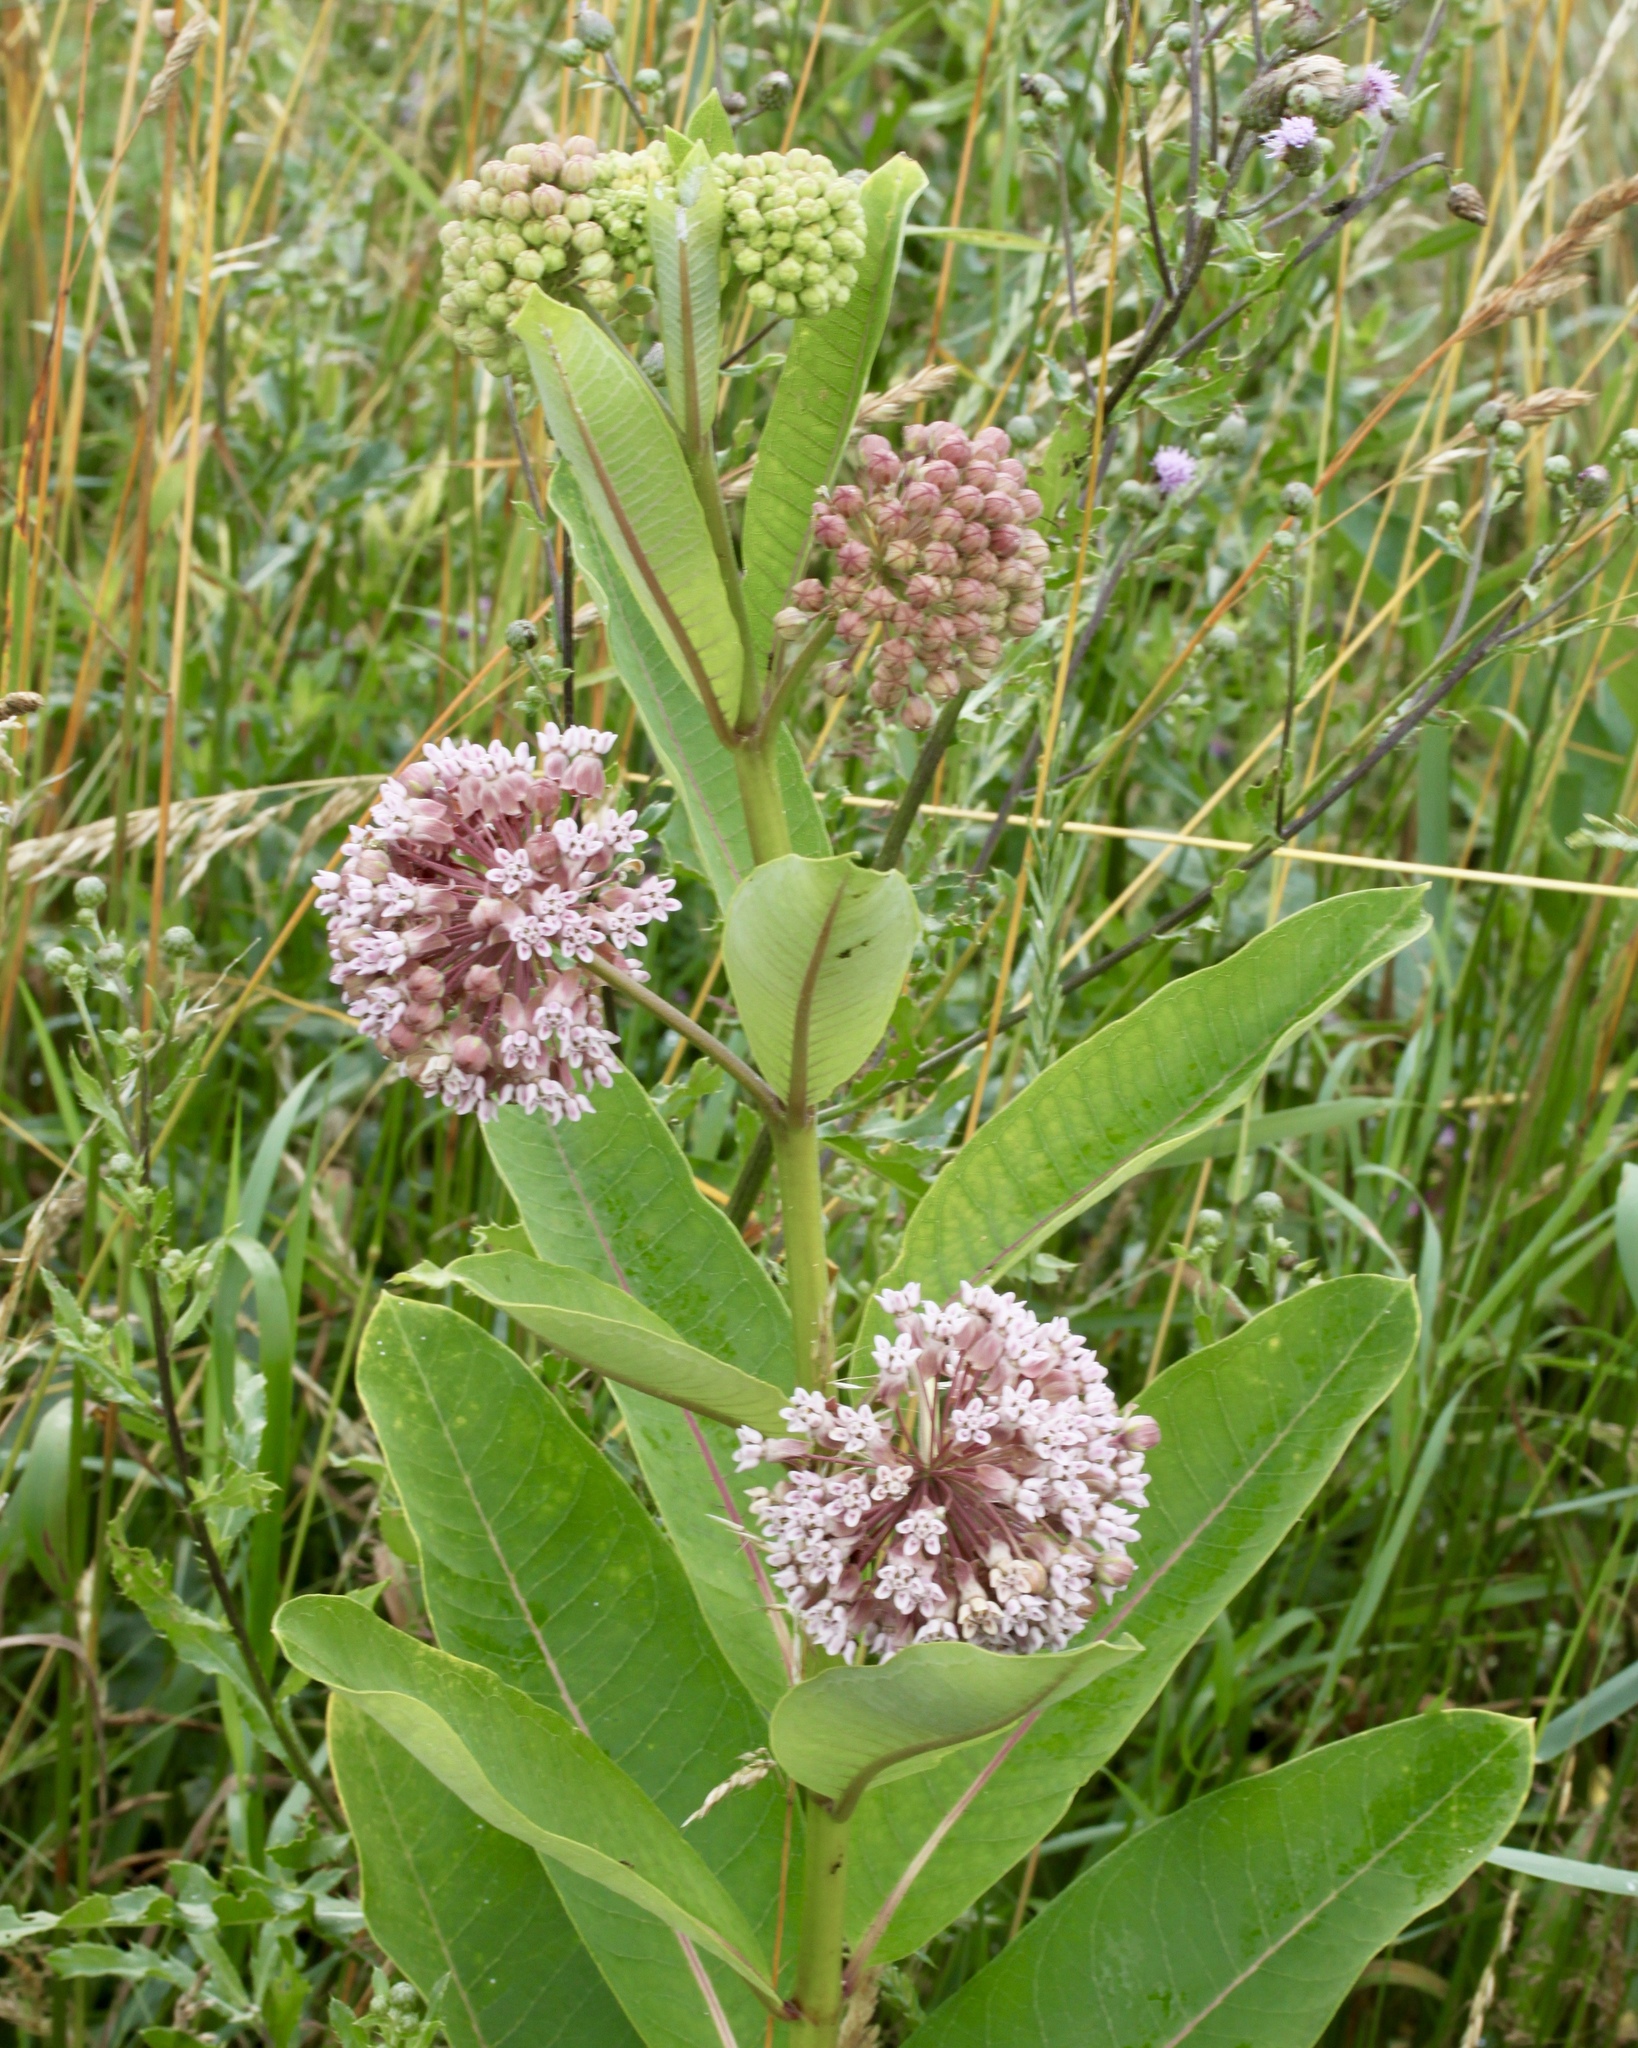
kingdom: Plantae
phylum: Tracheophyta
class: Magnoliopsida
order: Gentianales
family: Apocynaceae
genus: Asclepias
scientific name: Asclepias syriaca
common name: Common milkweed
